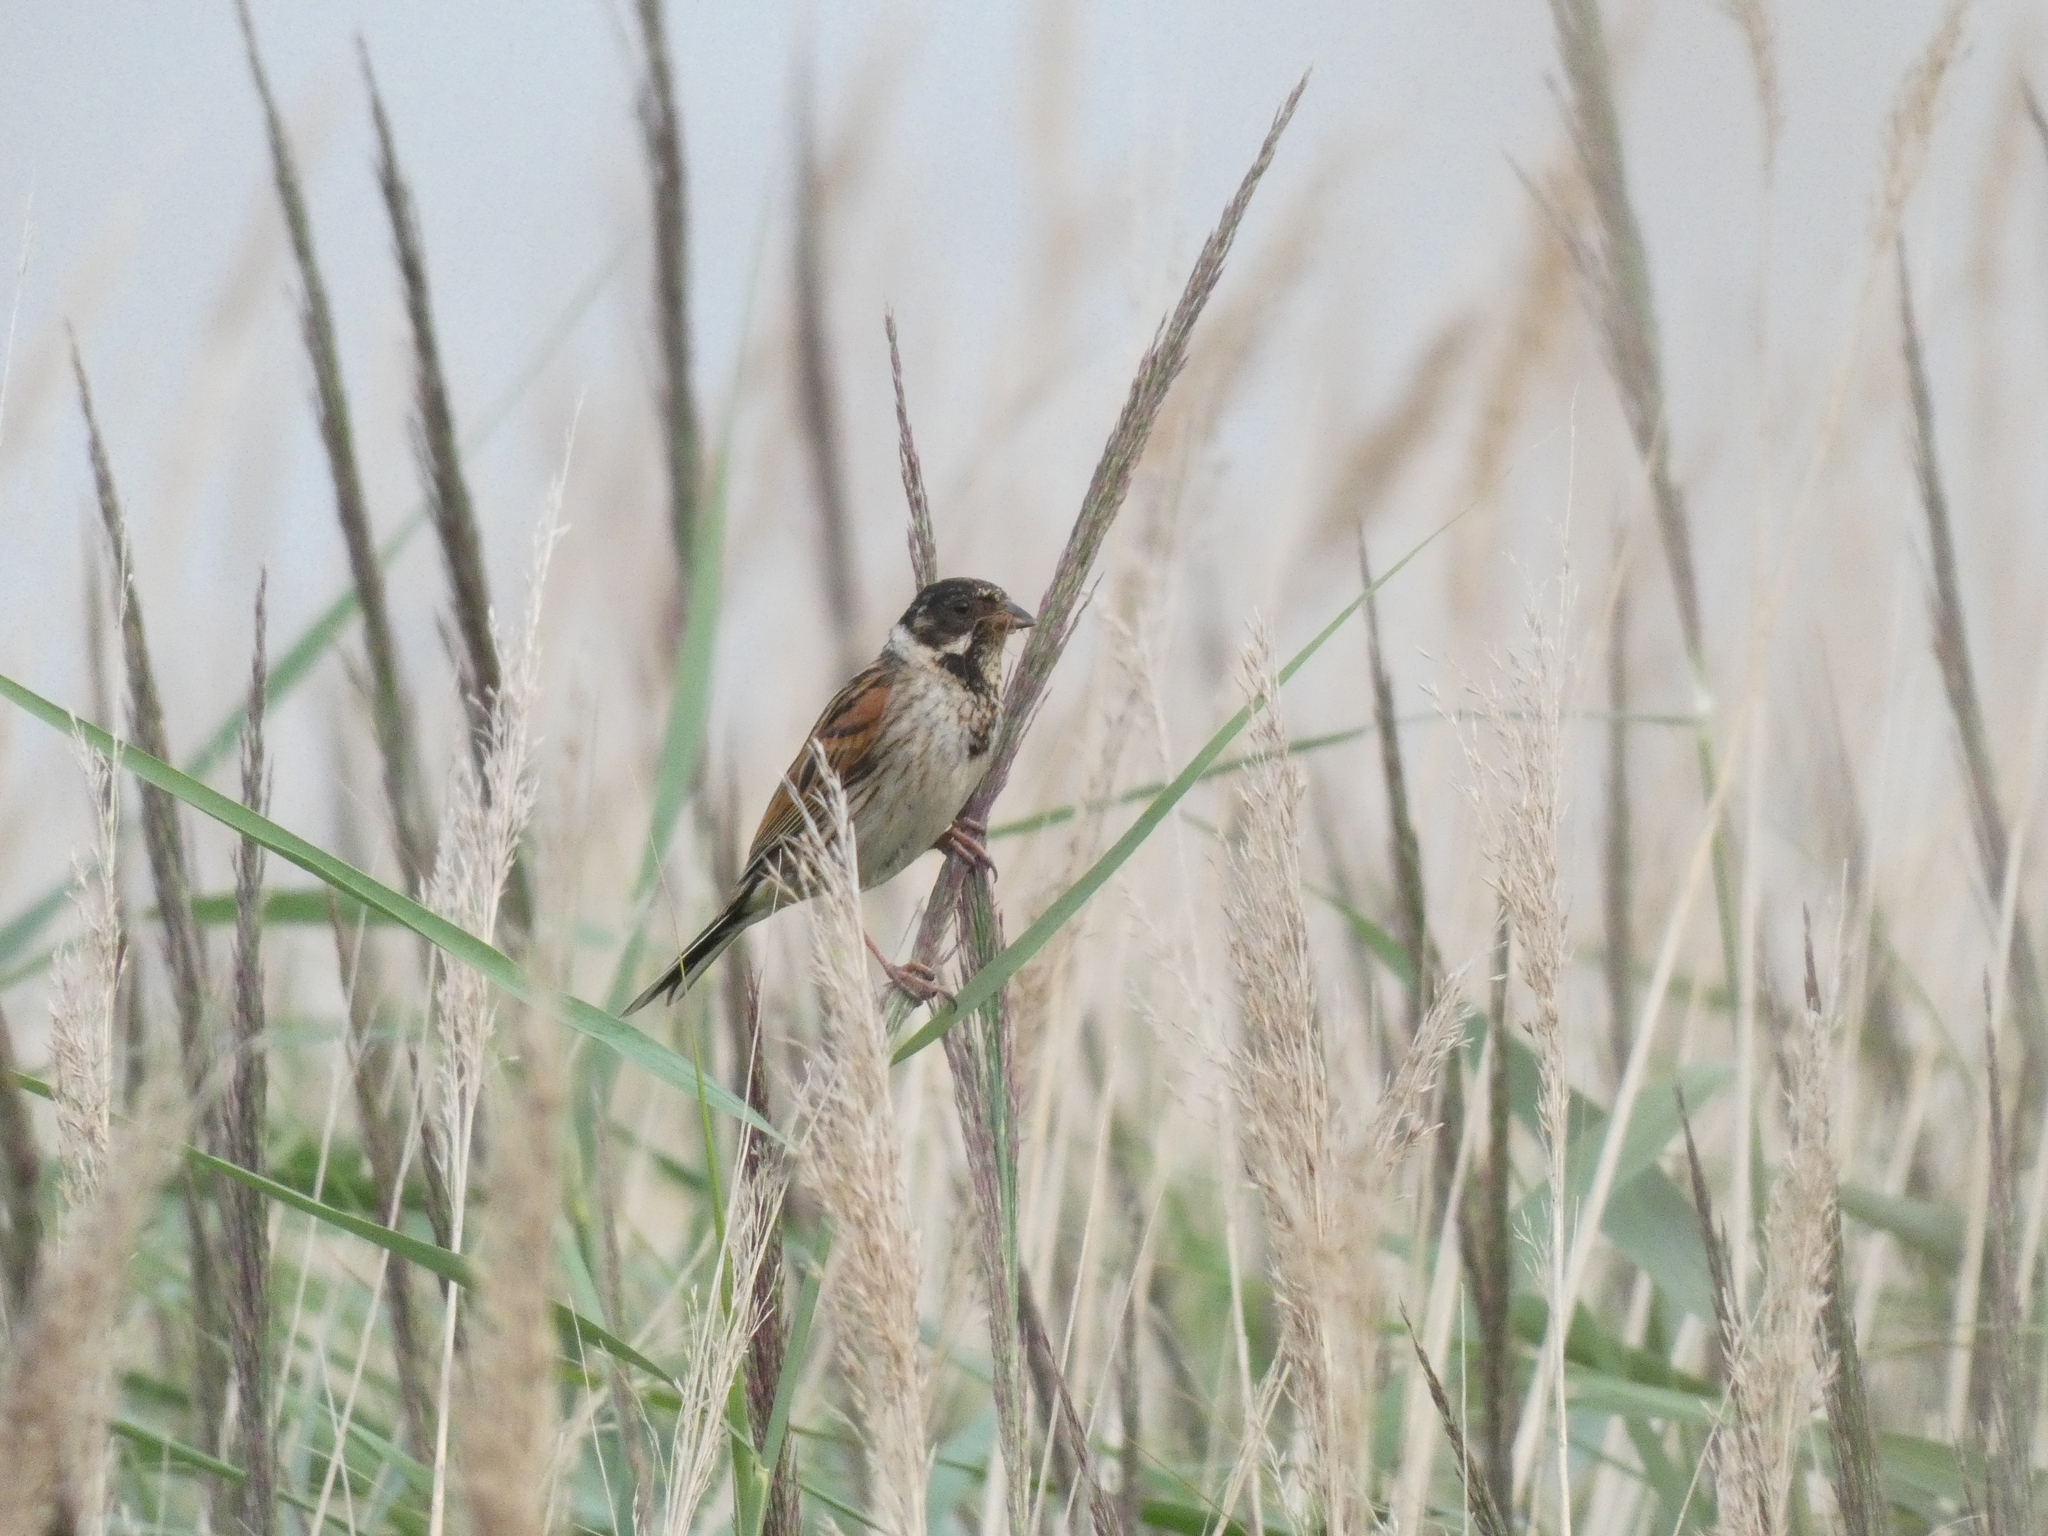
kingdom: Animalia
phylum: Chordata
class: Aves
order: Passeriformes
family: Emberizidae
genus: Emberiza
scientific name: Emberiza schoeniclus
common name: Reed bunting
